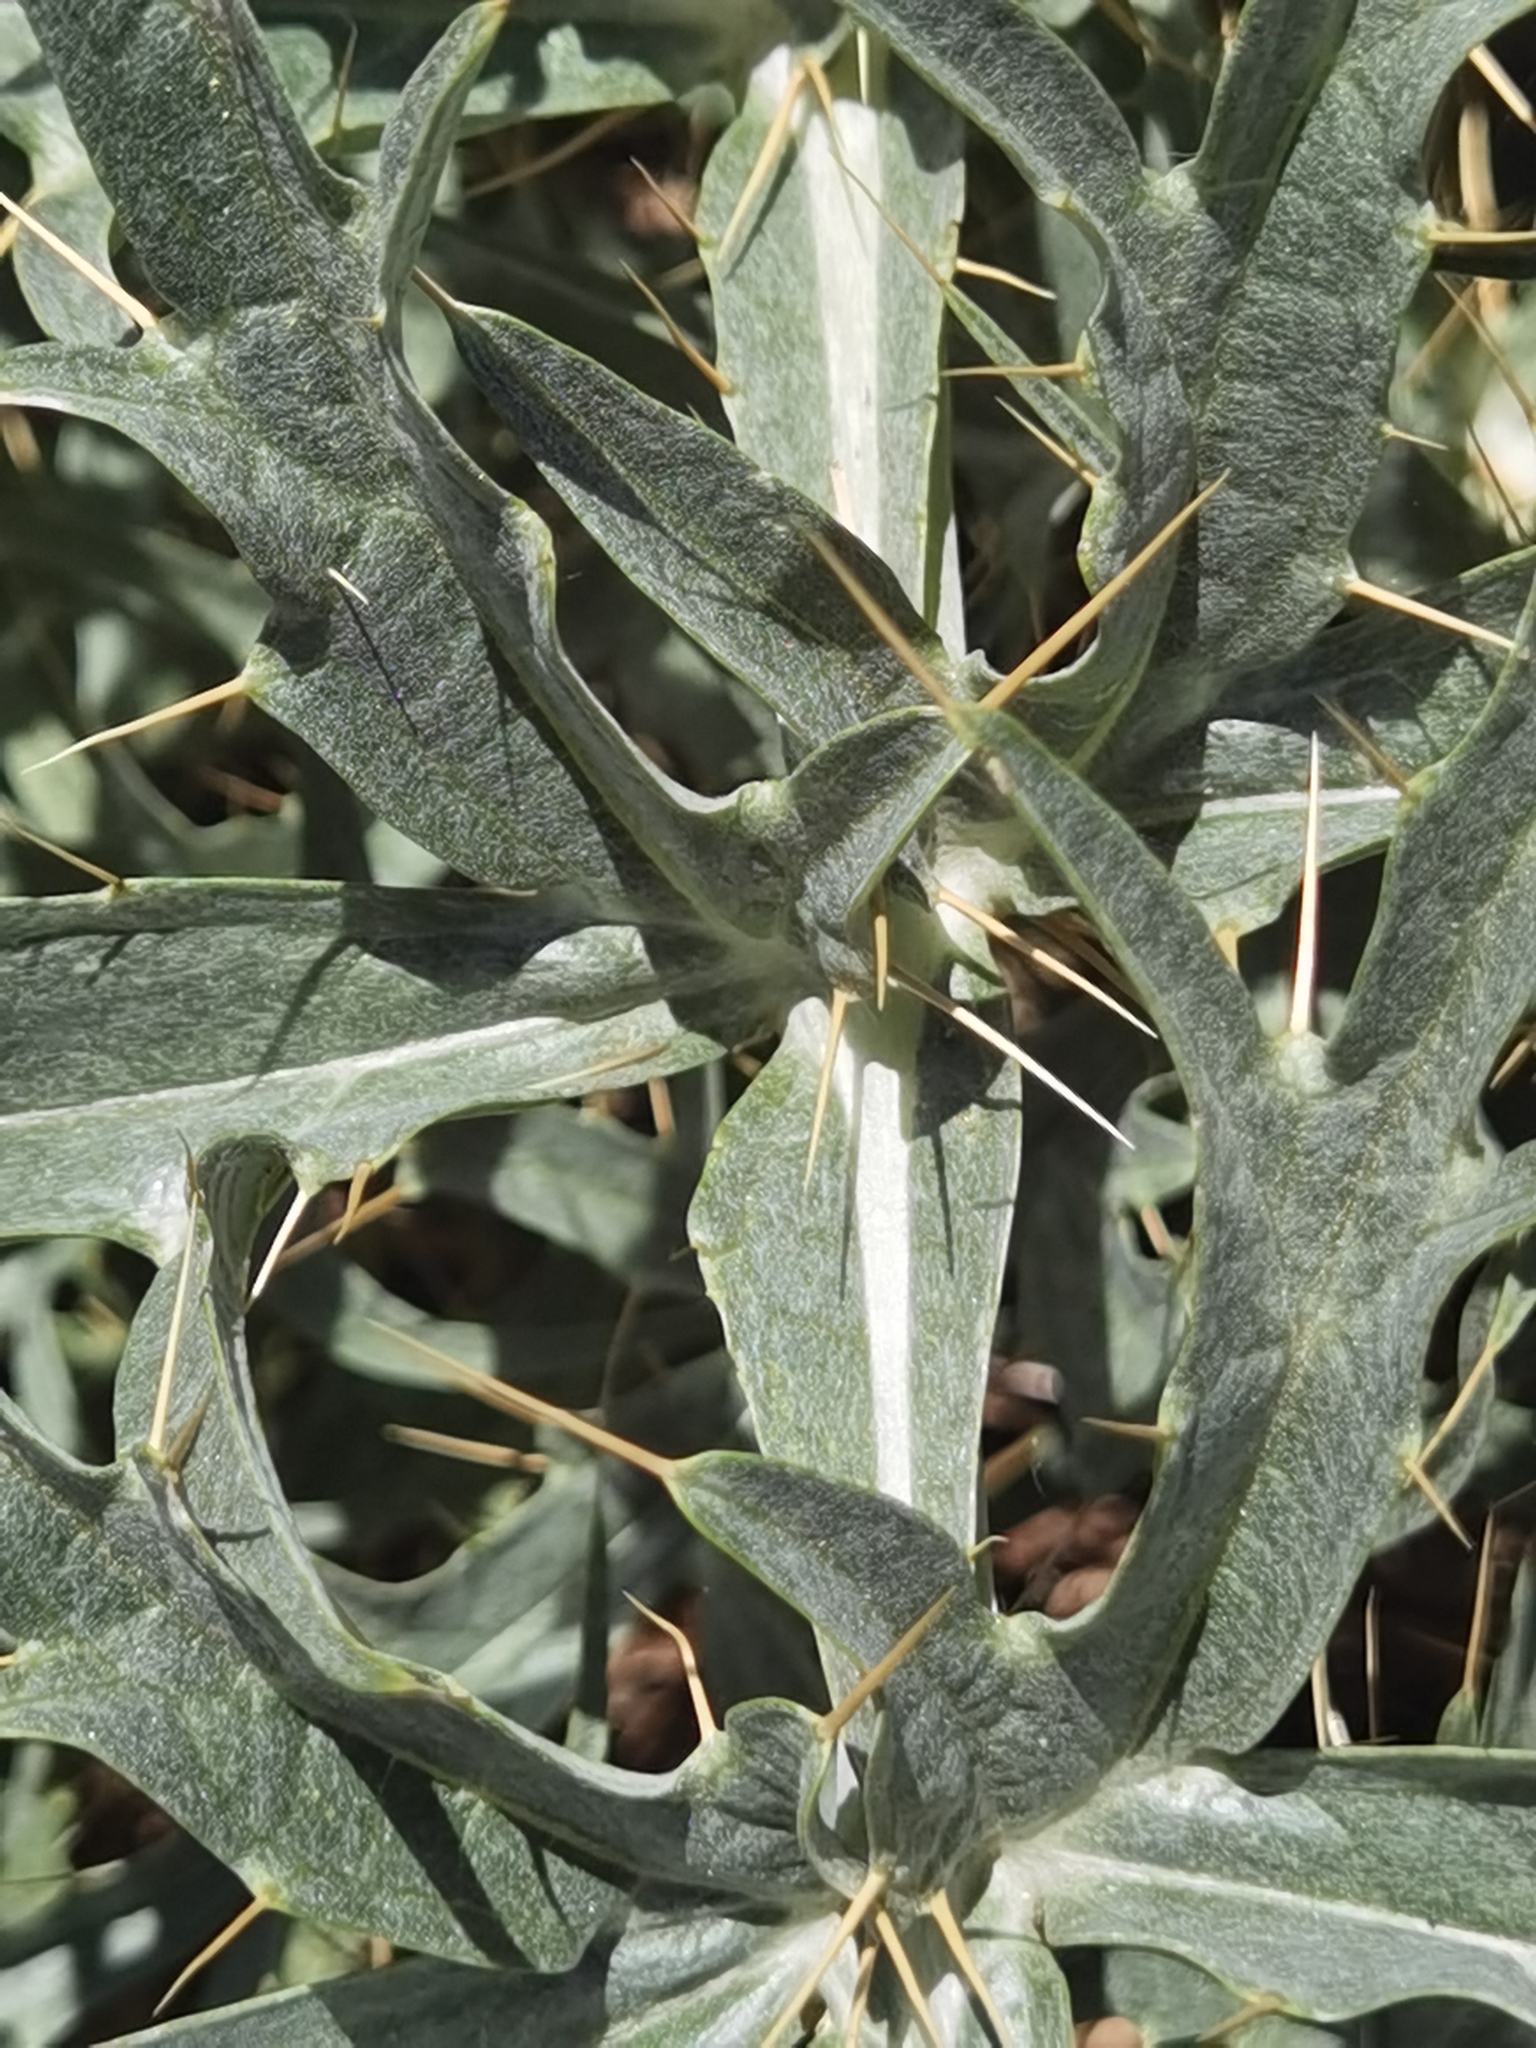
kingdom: Plantae
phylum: Tracheophyta
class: Magnoliopsida
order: Asterales
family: Asteraceae
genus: Cynara
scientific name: Cynara cardunculus
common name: Globe artichoke
